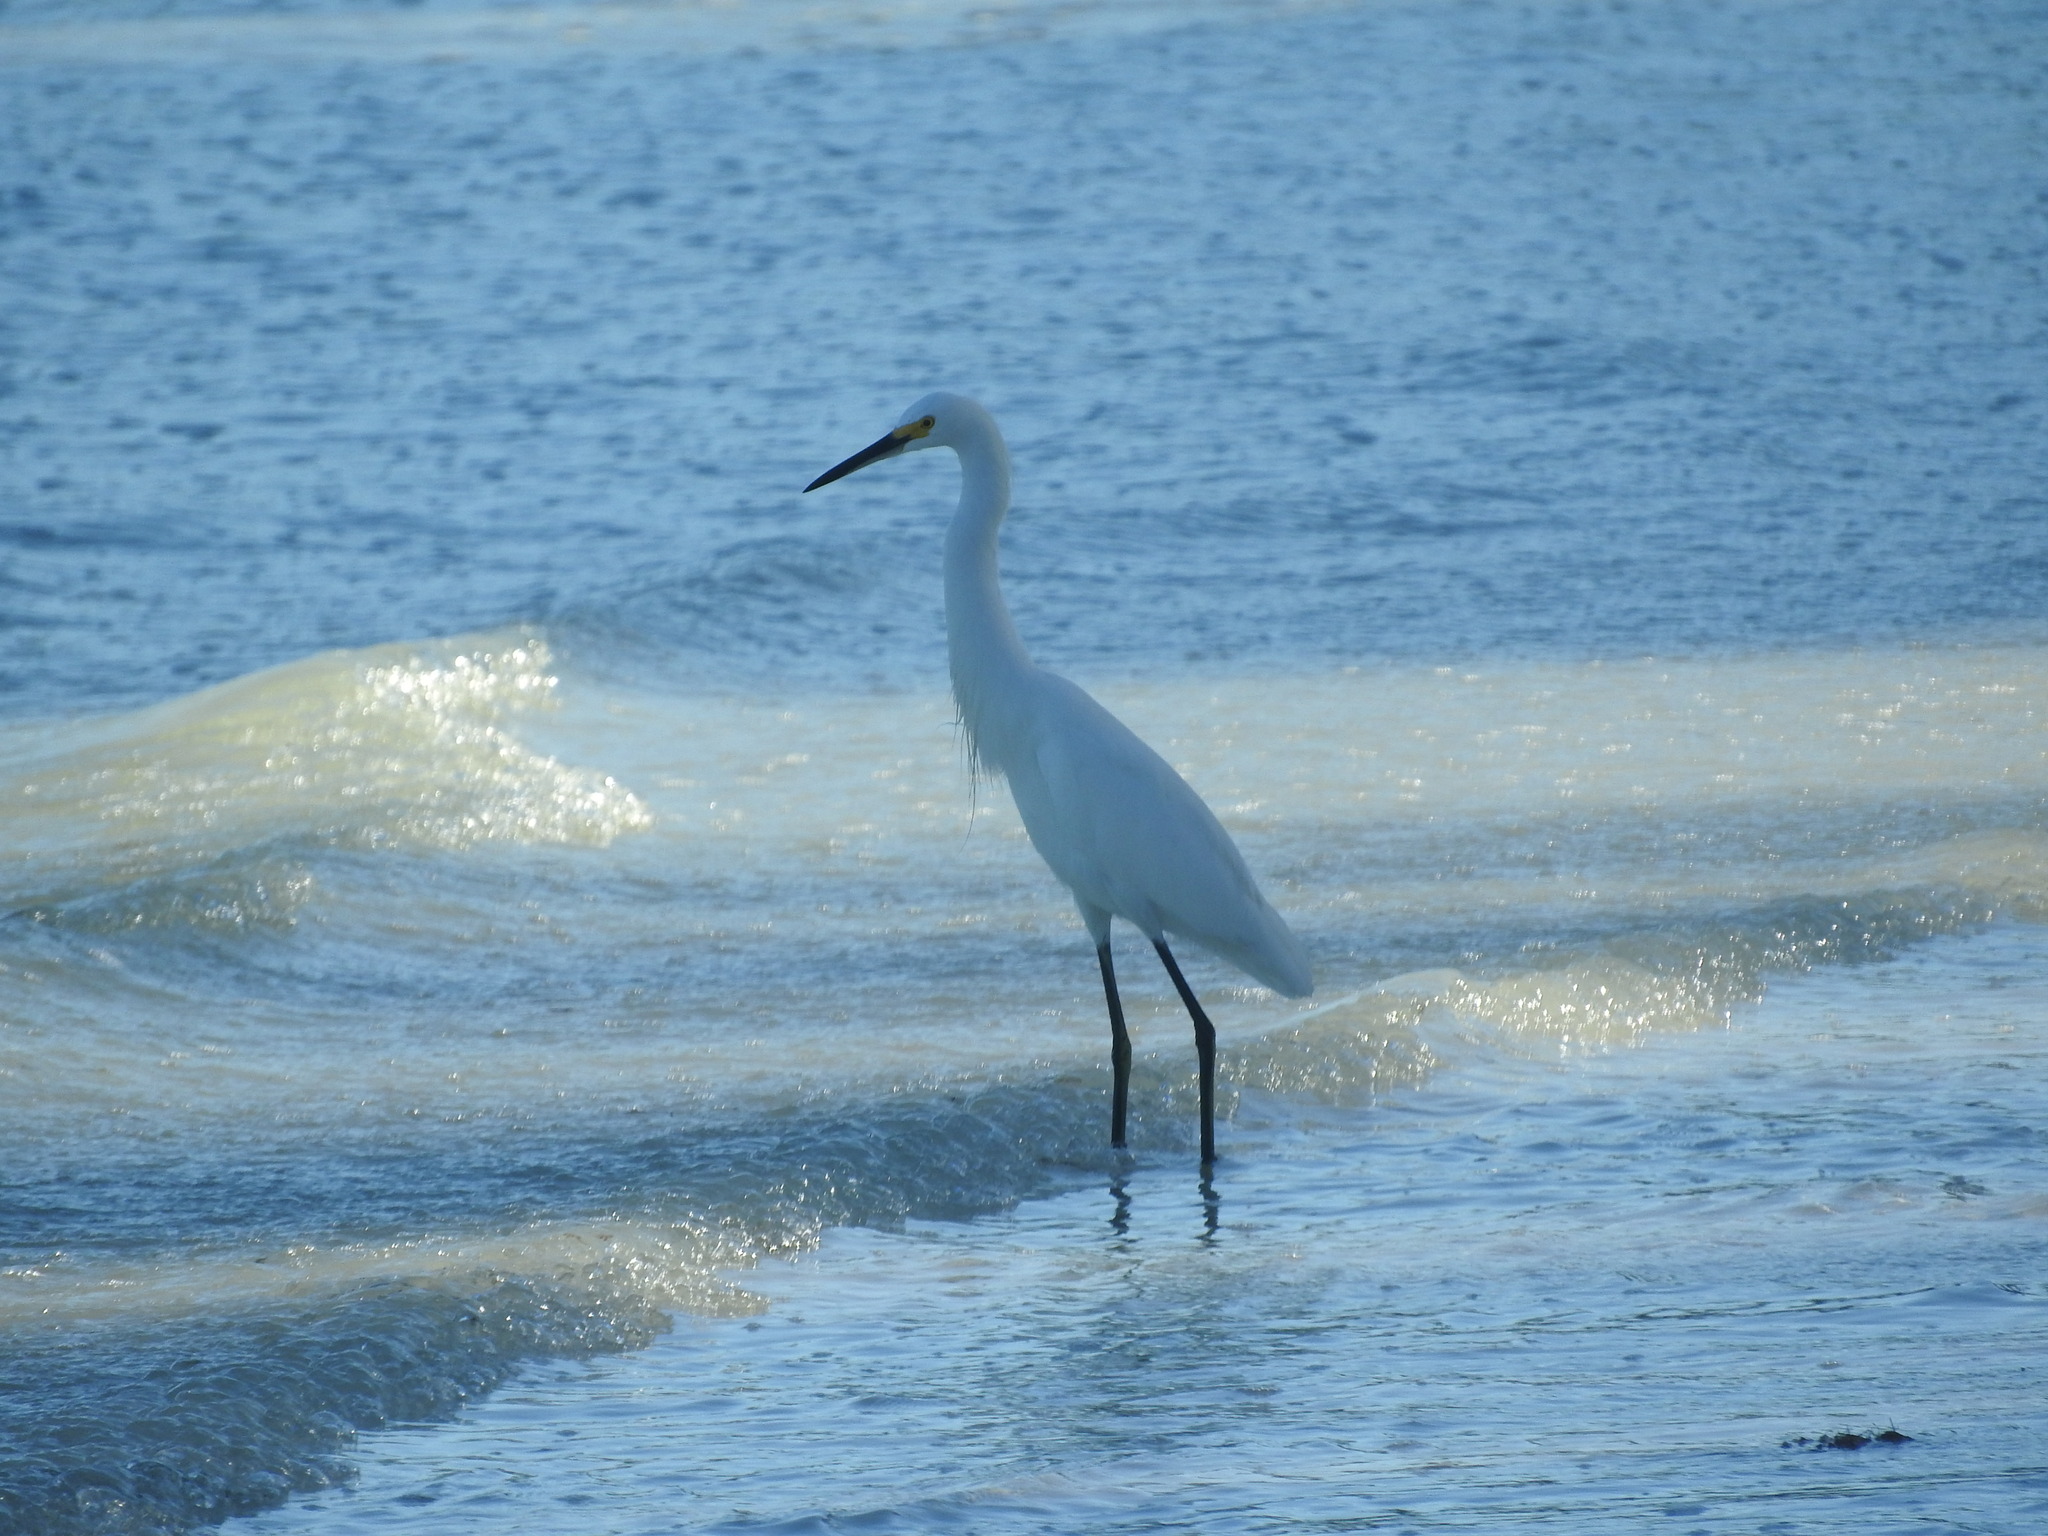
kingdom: Animalia
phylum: Chordata
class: Aves
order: Pelecaniformes
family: Ardeidae
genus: Egretta
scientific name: Egretta thula
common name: Snowy egret
